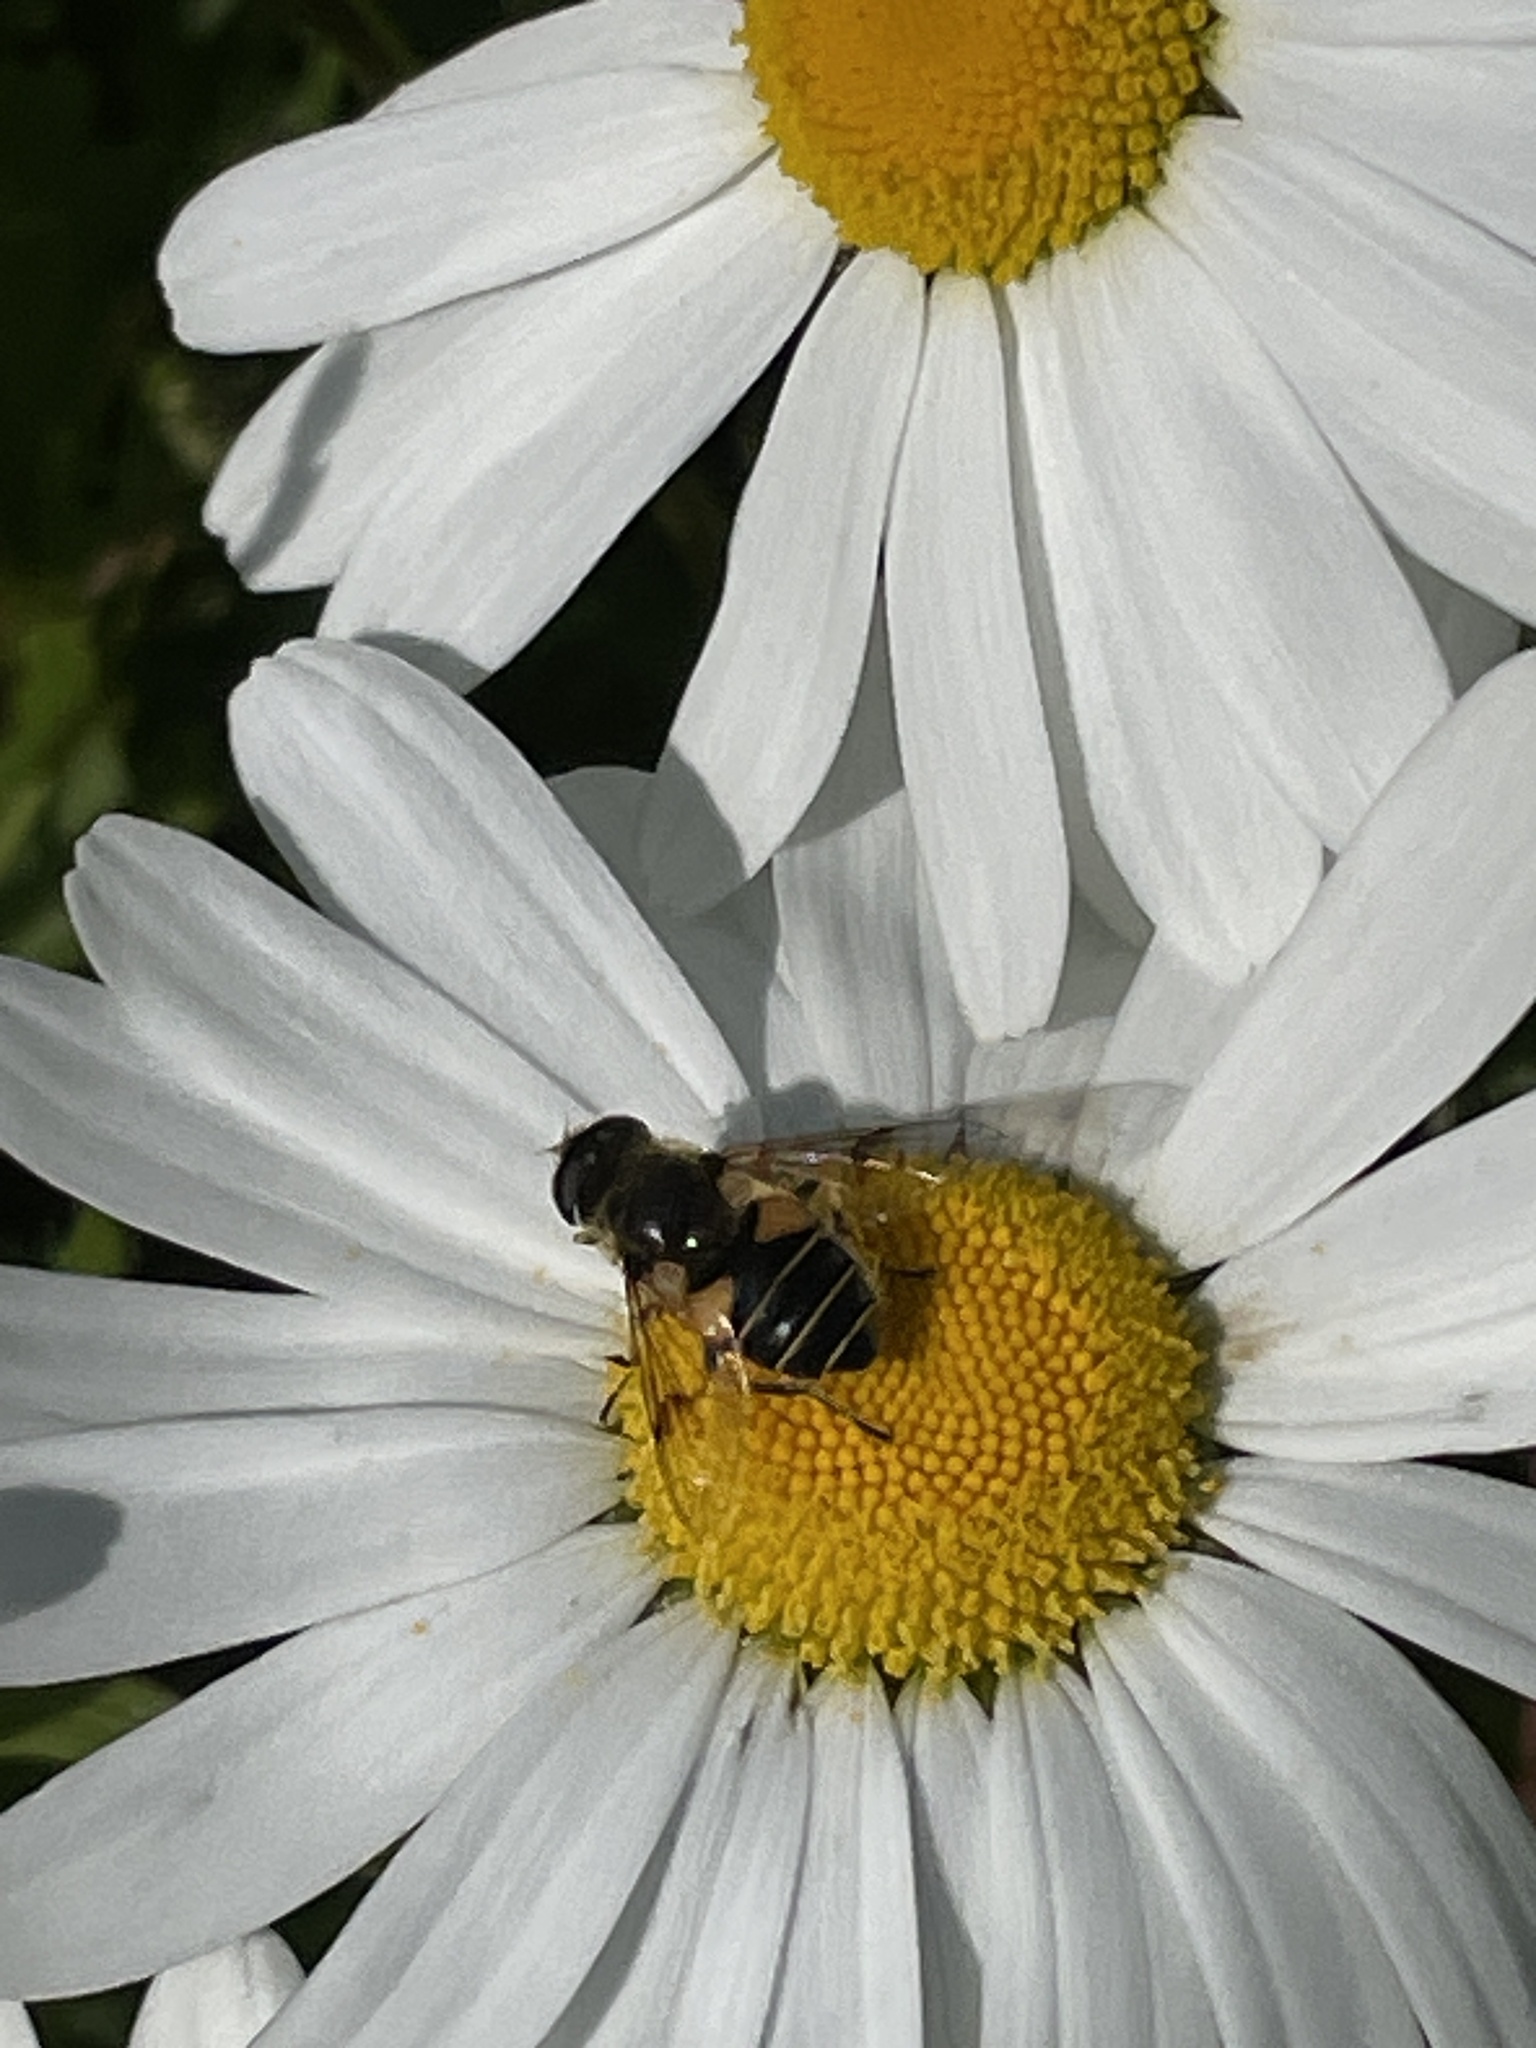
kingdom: Animalia
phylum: Arthropoda
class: Insecta
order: Diptera
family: Syrphidae
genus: Cheilosia
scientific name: Cheilosia morio
